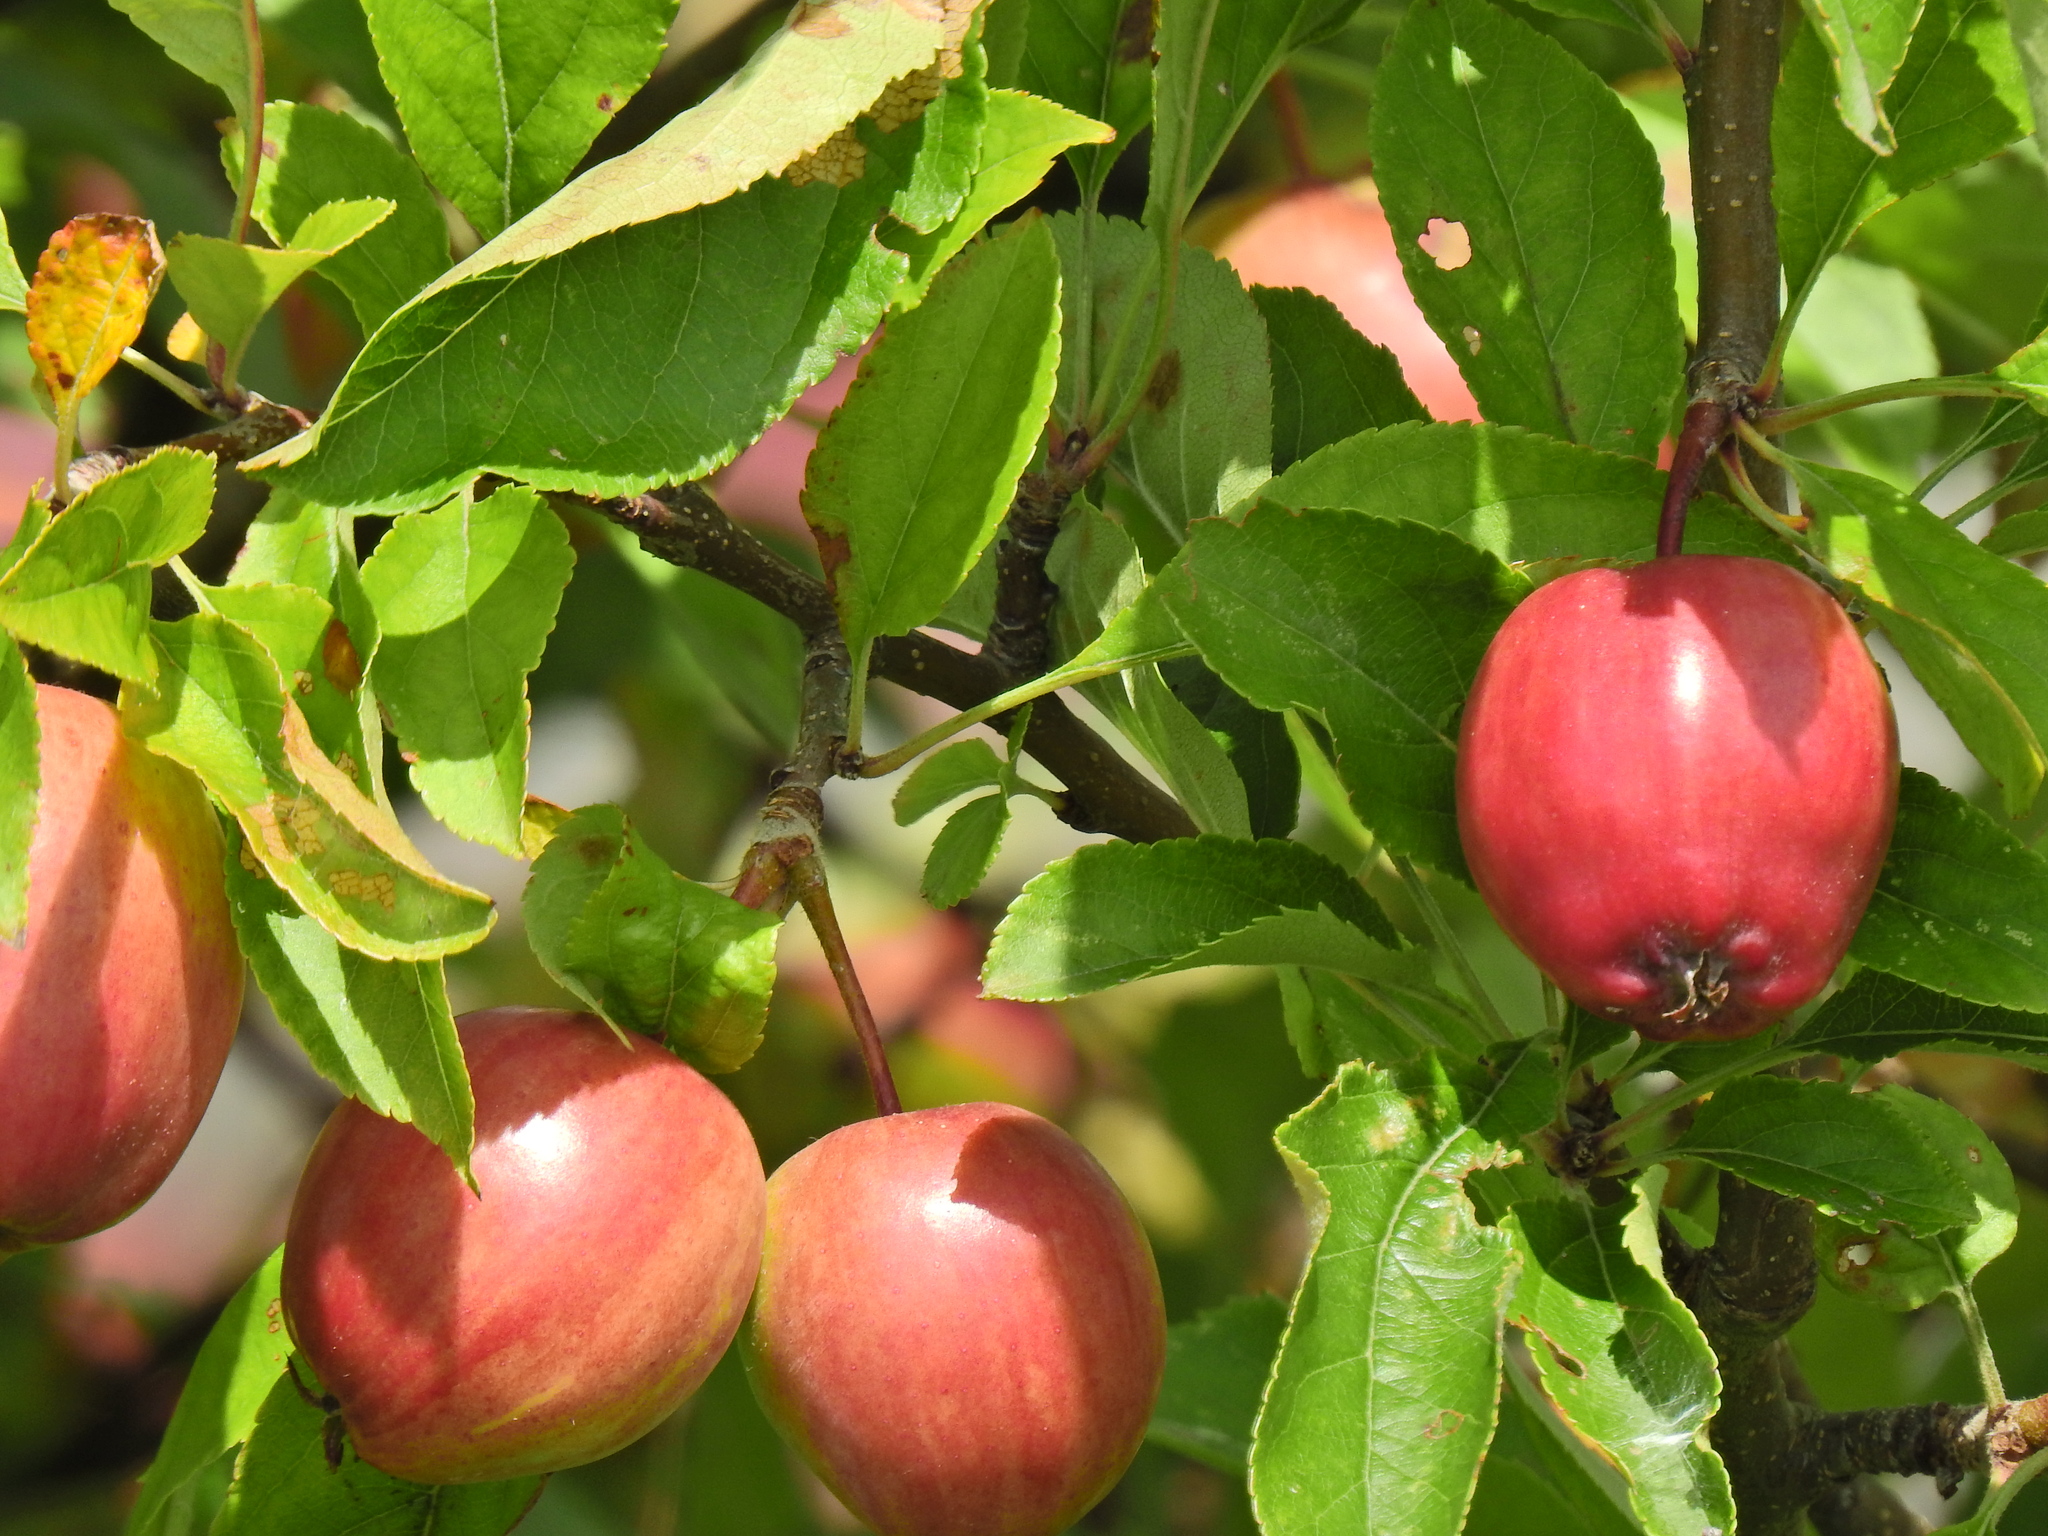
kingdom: Plantae
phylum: Tracheophyta
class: Magnoliopsida
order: Rosales
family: Rosaceae
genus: Malus
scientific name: Malus domestica
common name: Apple
